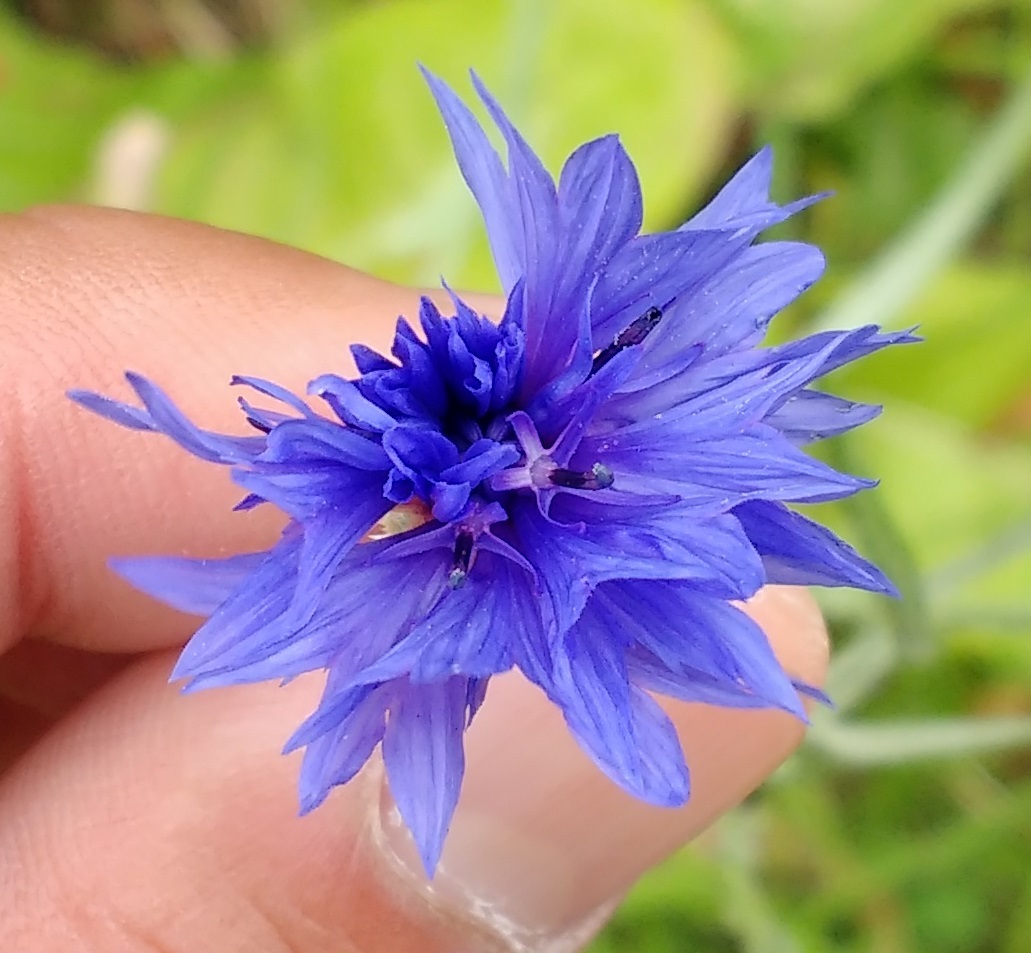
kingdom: Plantae
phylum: Tracheophyta
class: Magnoliopsida
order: Asterales
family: Asteraceae
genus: Centaurea
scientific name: Centaurea cyanus
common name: Cornflower
